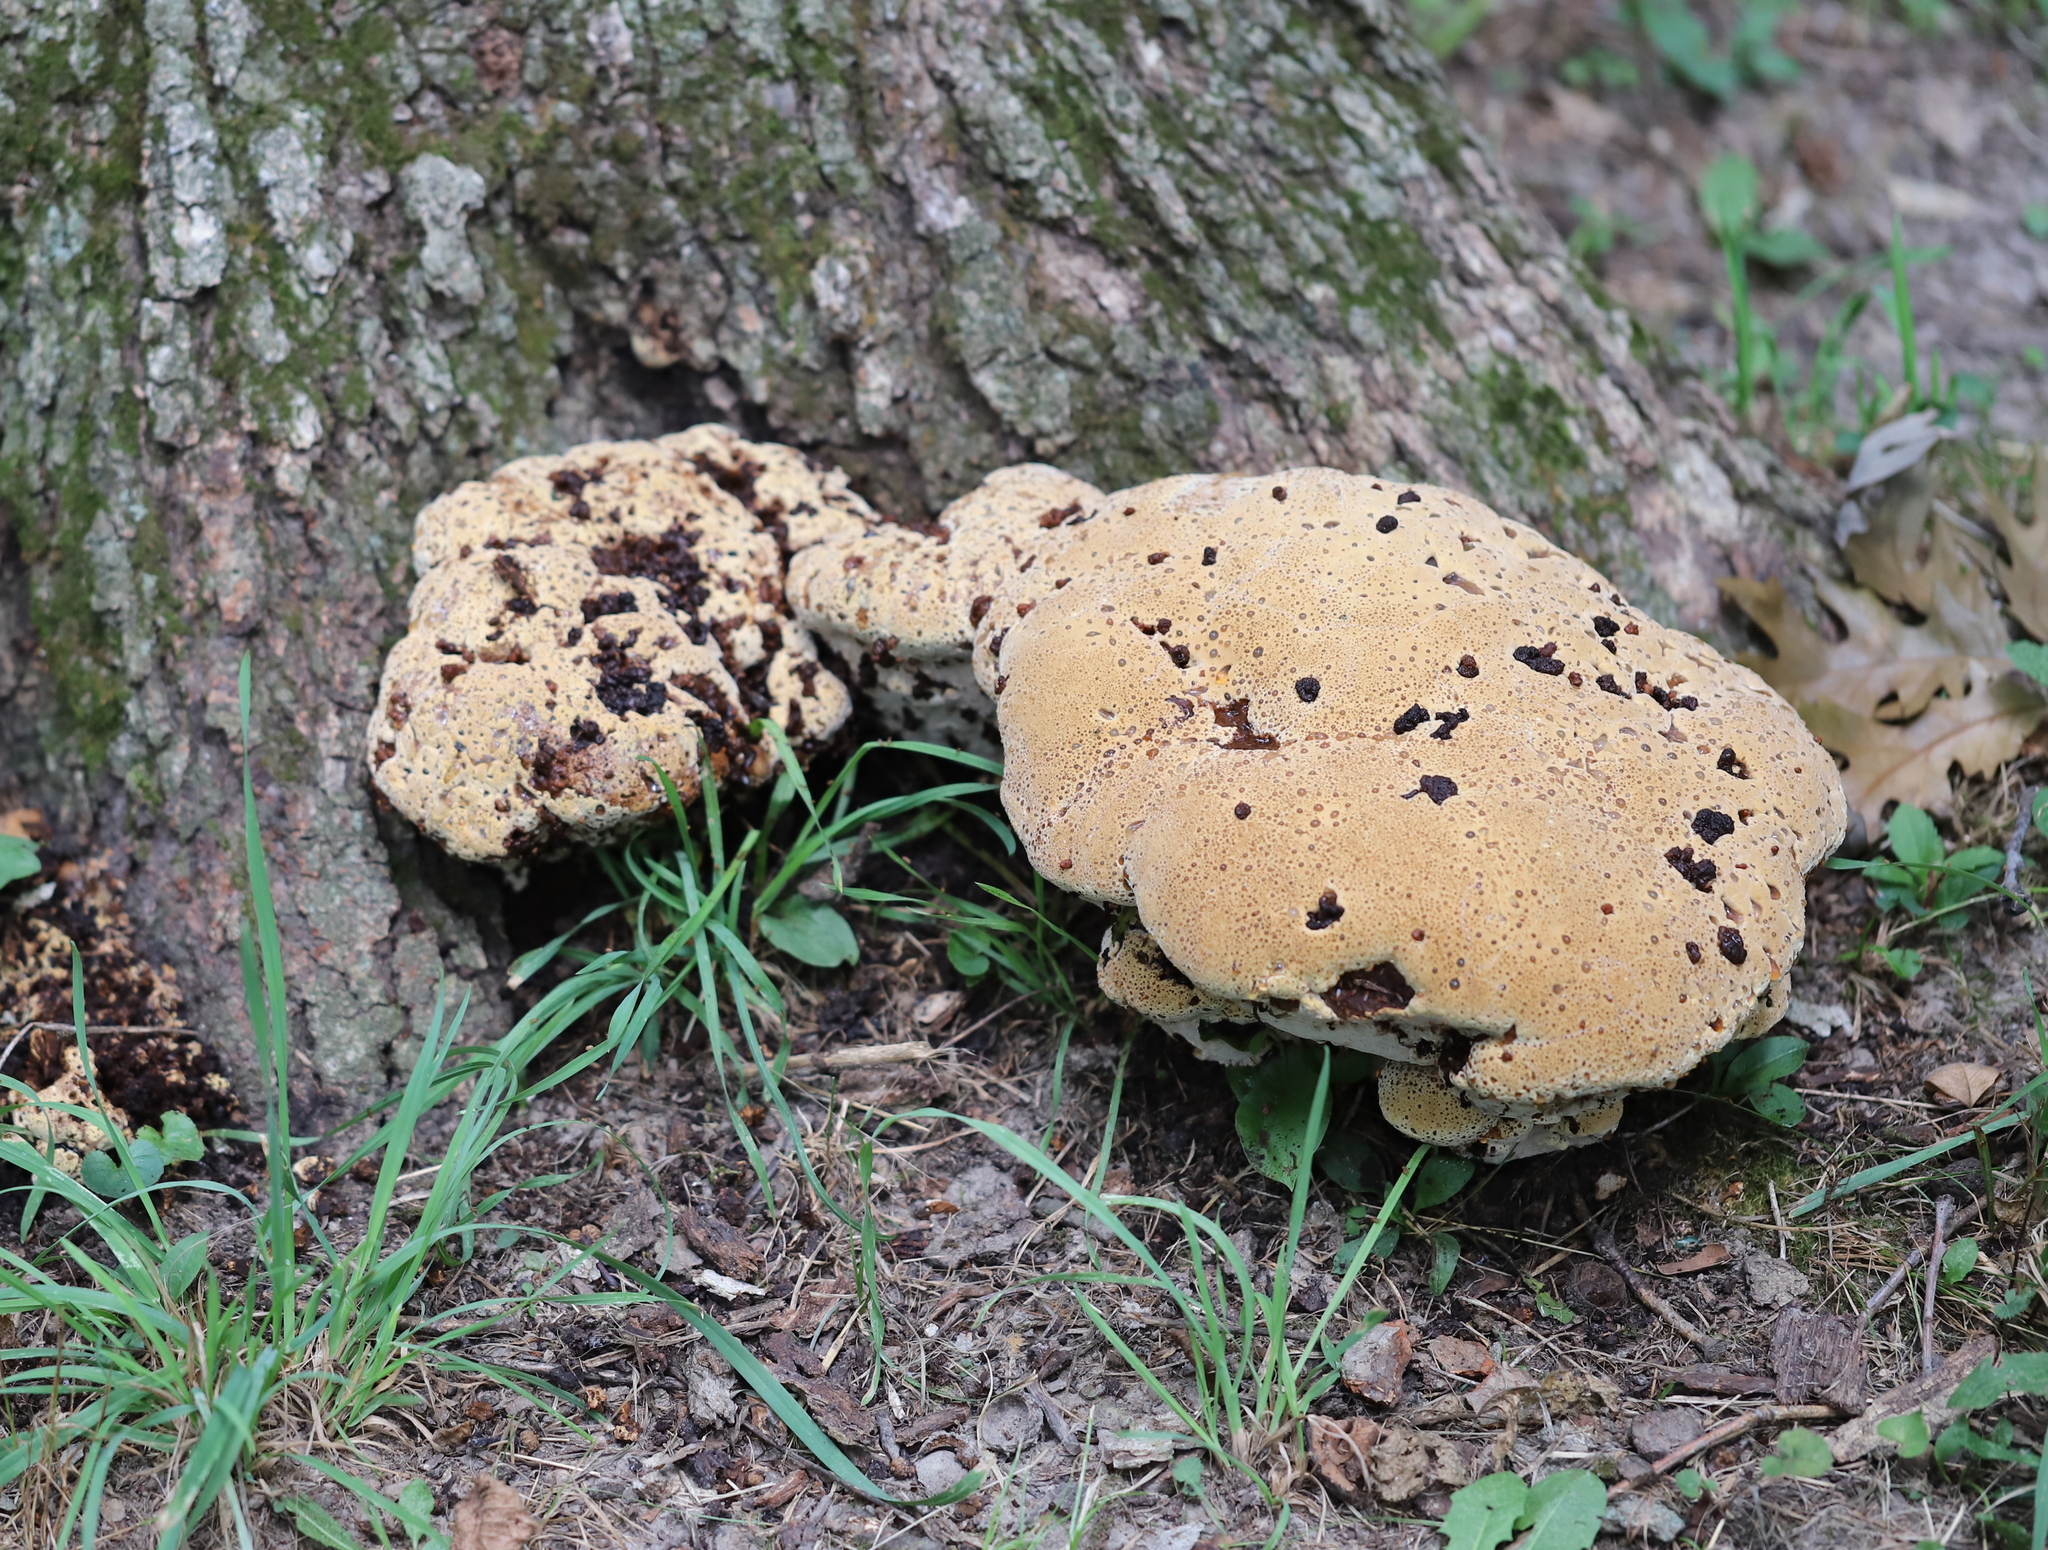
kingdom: Fungi
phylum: Basidiomycota
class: Agaricomycetes
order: Hymenochaetales
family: Hymenochaetaceae
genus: Pseudoinonotus
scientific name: Pseudoinonotus dryadeus
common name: Oak bracket
